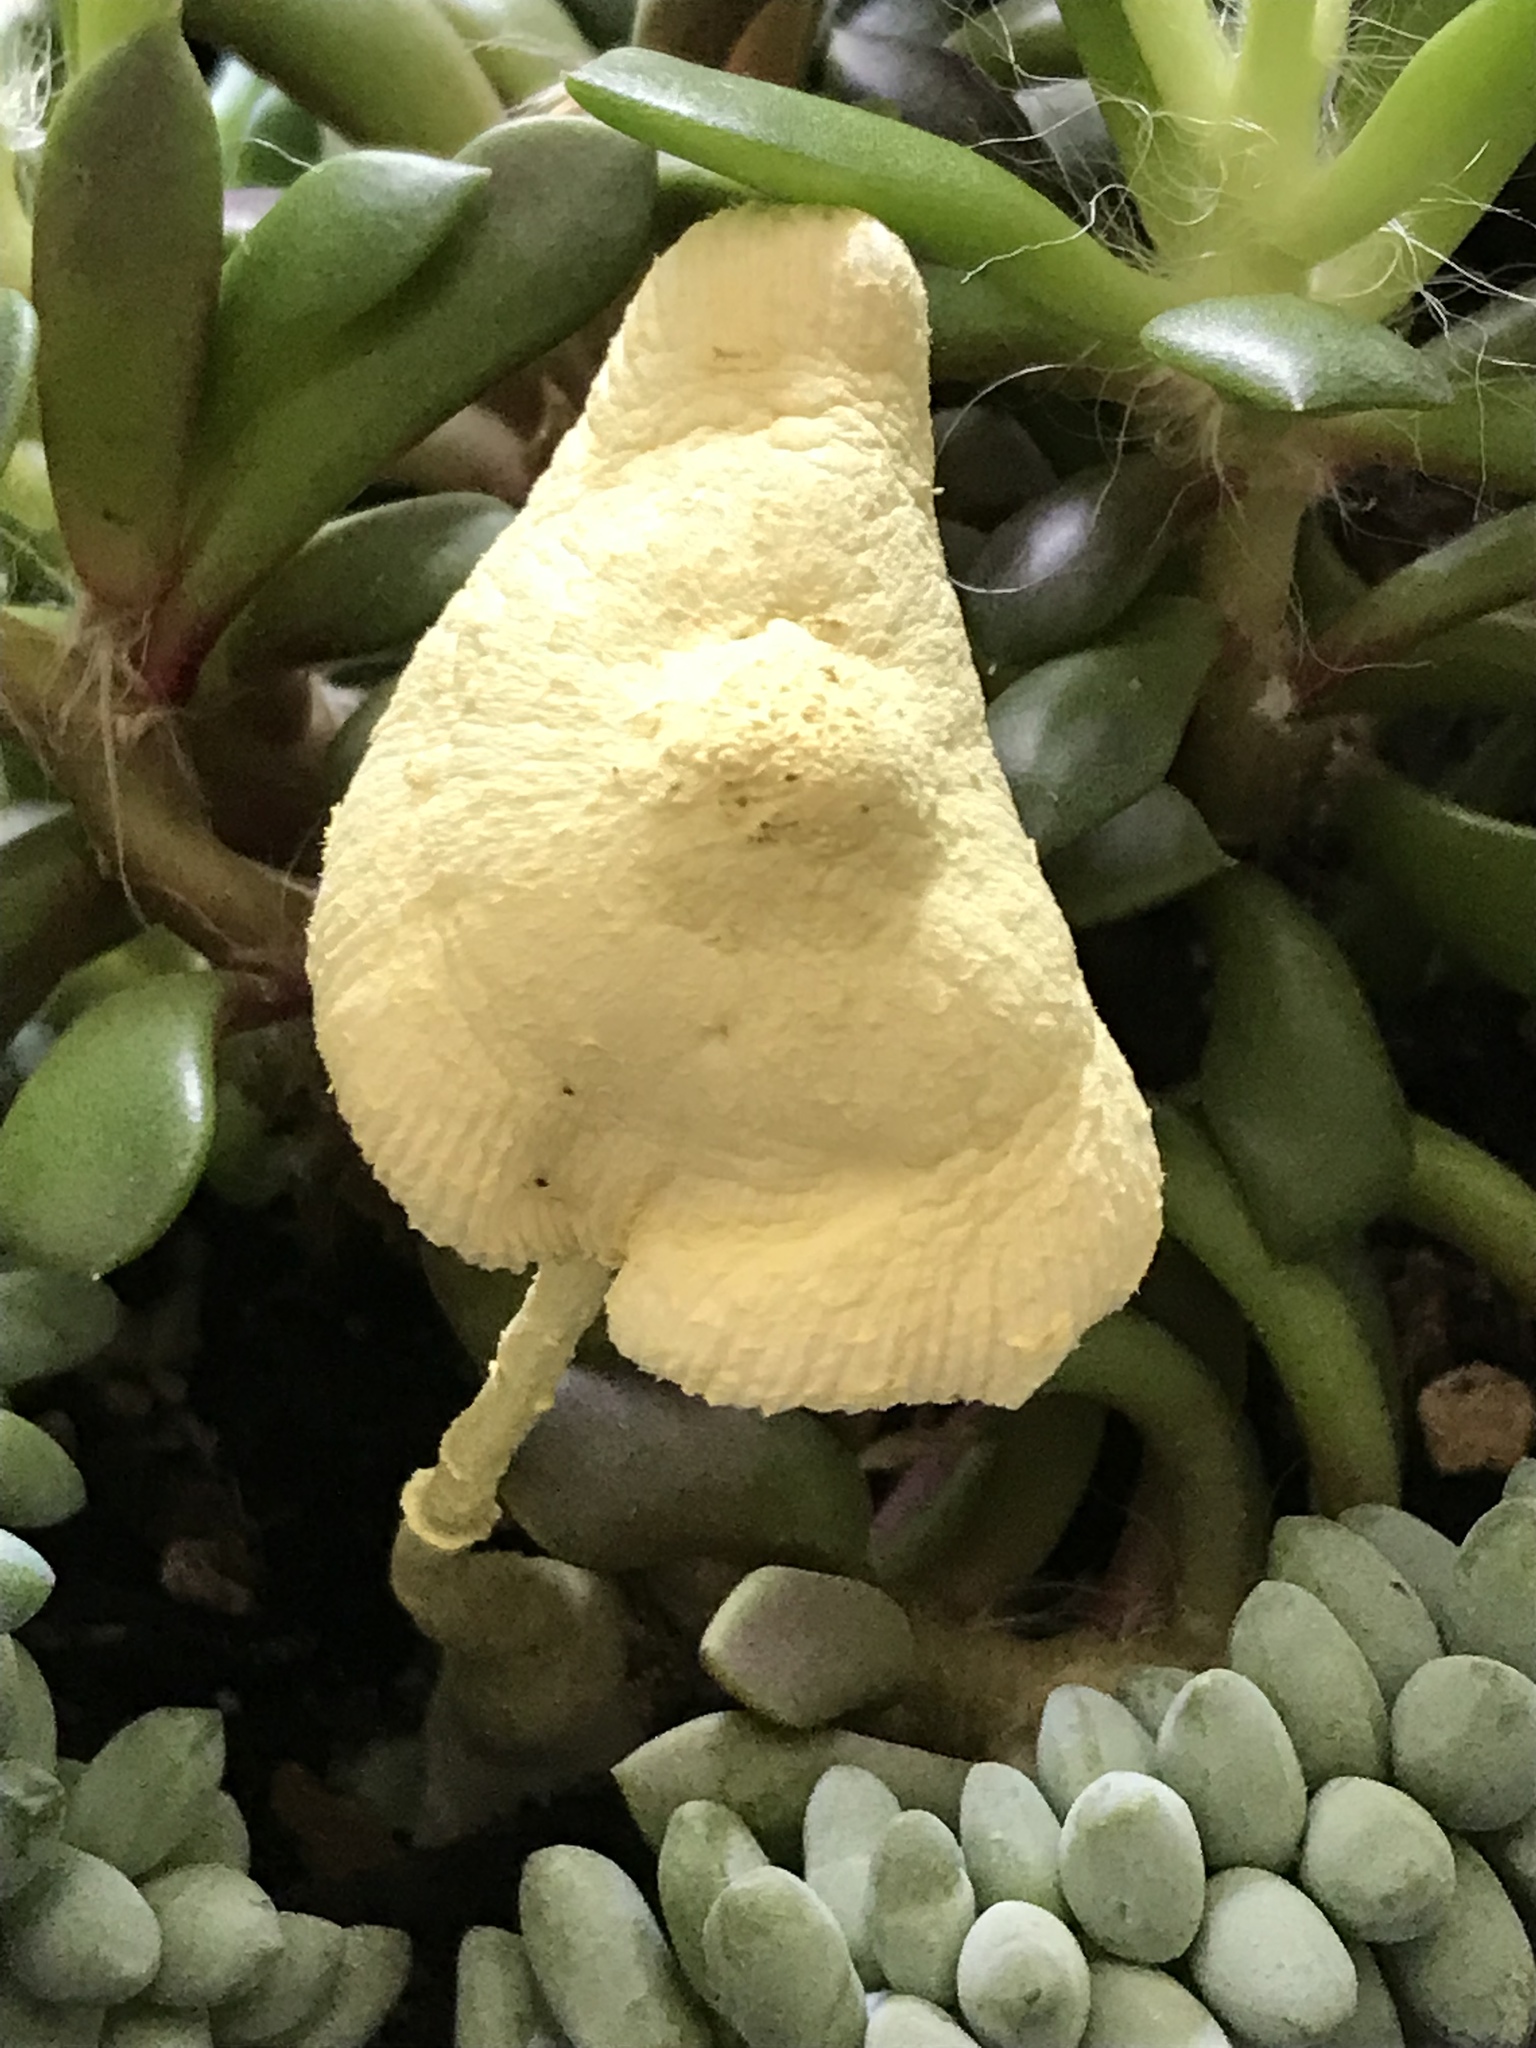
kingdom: Fungi
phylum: Basidiomycota
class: Agaricomycetes
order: Agaricales
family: Agaricaceae
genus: Leucocoprinus
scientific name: Leucocoprinus birnbaumii
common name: Plantpot dapperling
